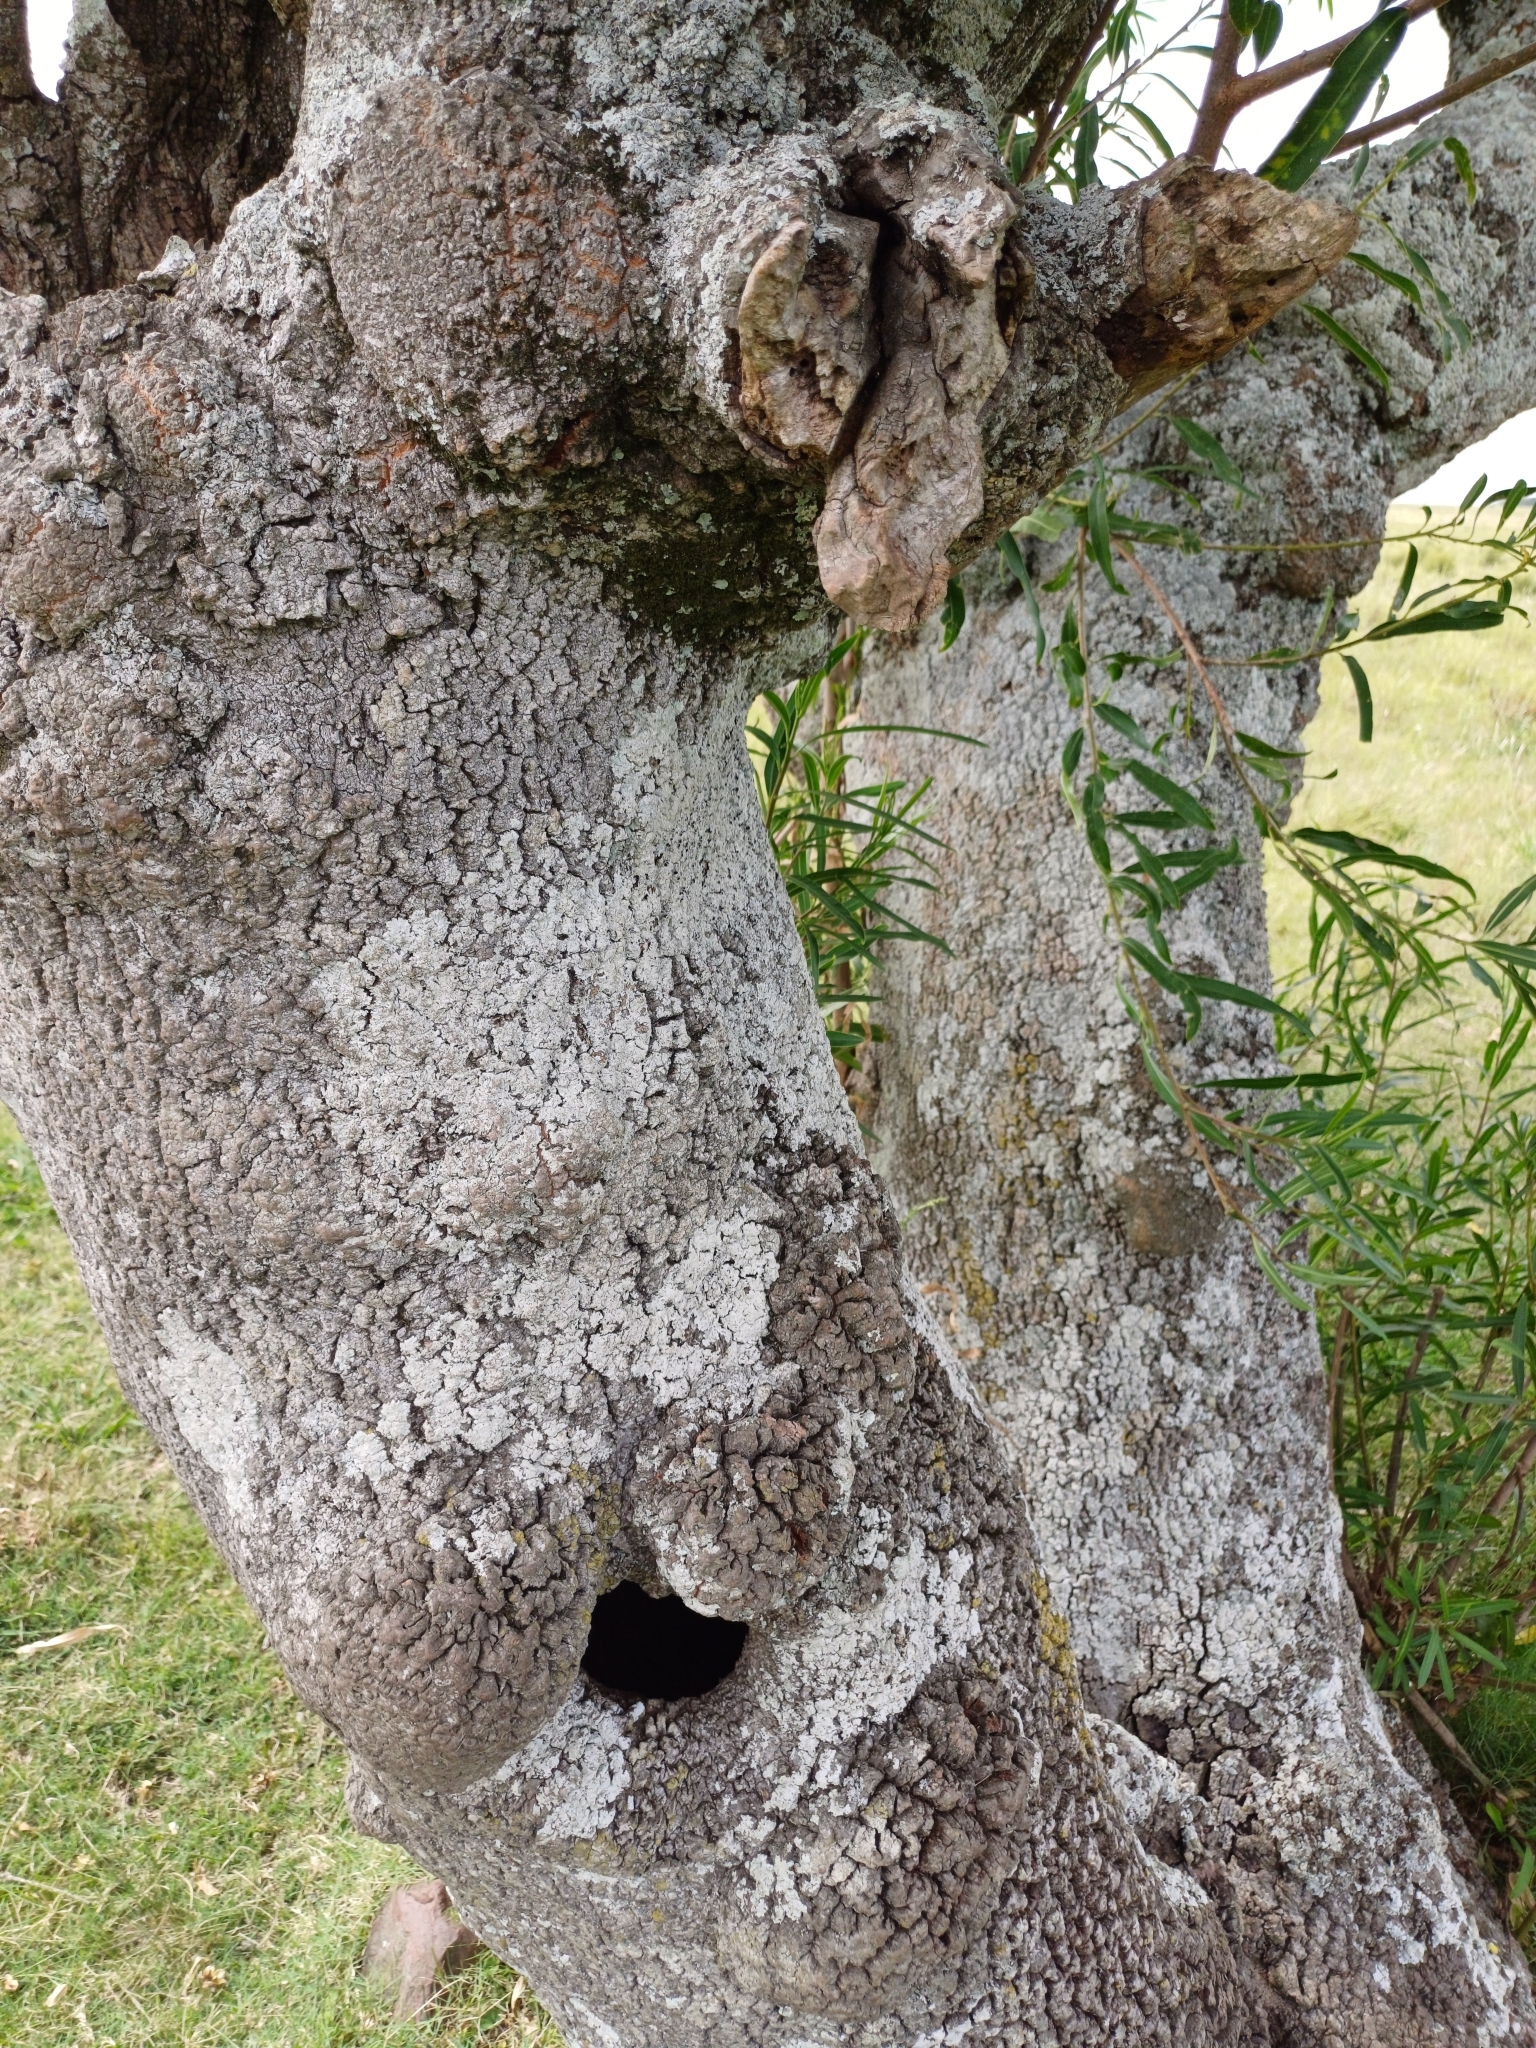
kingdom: Plantae
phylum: Tracheophyta
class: Magnoliopsida
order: Malpighiales
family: Euphorbiaceae
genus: Sapium
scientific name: Sapium haematospermum
